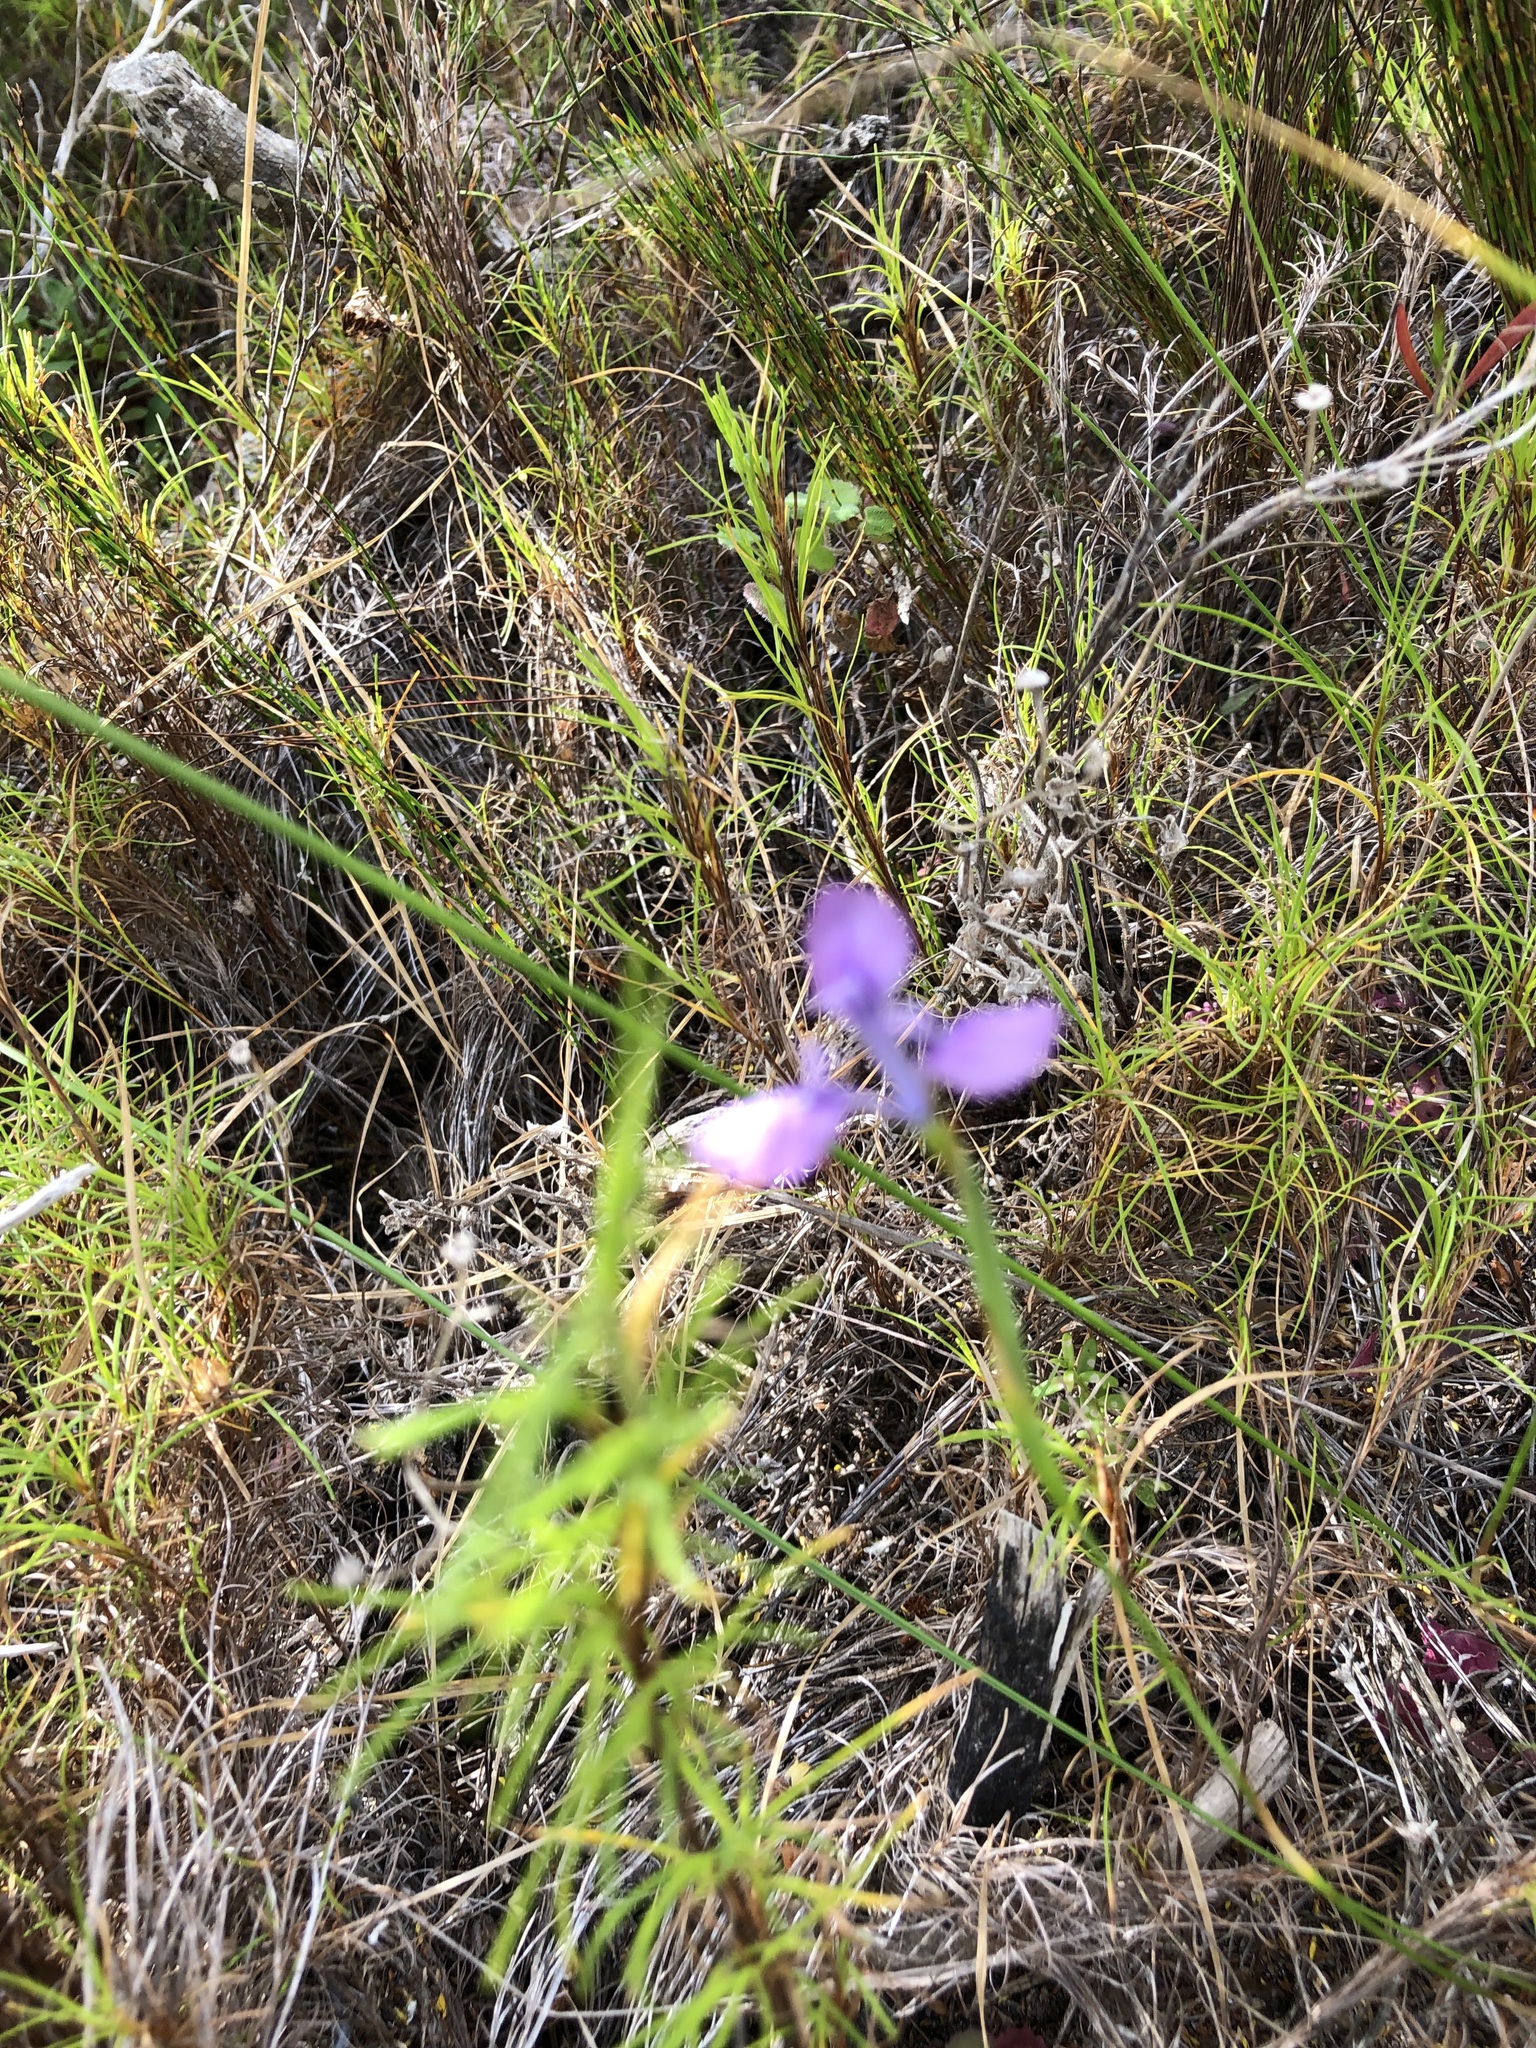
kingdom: Plantae
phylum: Tracheophyta
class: Liliopsida
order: Asparagales
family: Iridaceae
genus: Moraea
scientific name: Moraea tripetala
